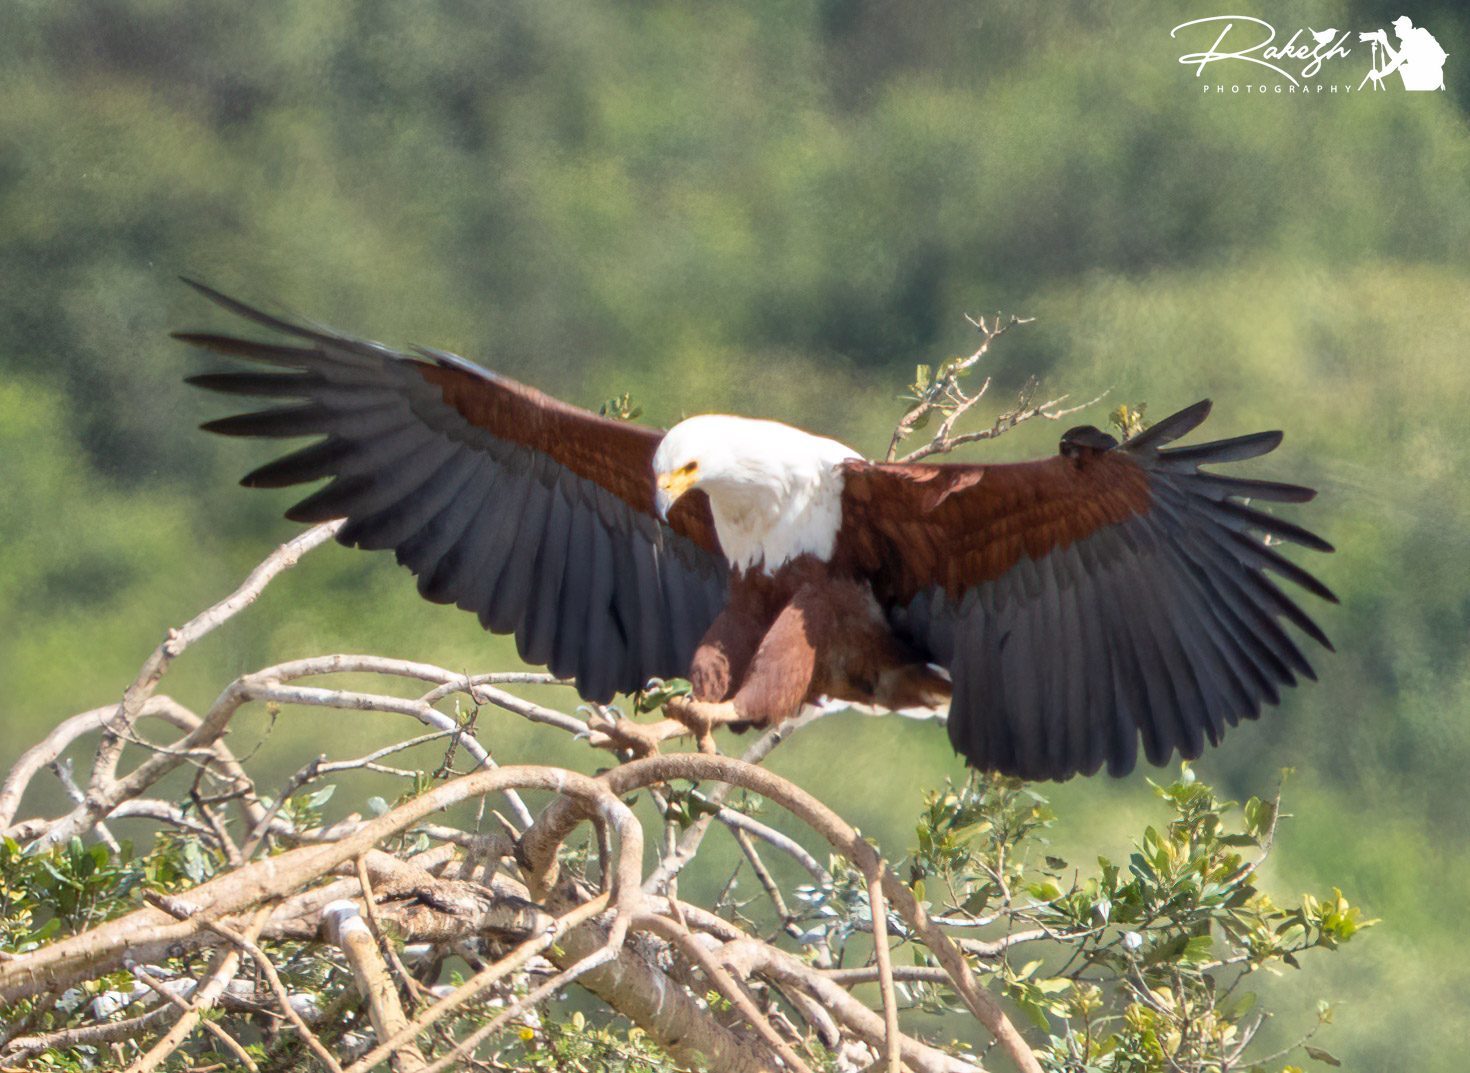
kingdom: Animalia
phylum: Chordata
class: Aves
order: Accipitriformes
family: Accipitridae
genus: Haliaeetus
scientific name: Haliaeetus vocifer
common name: African fish eagle
